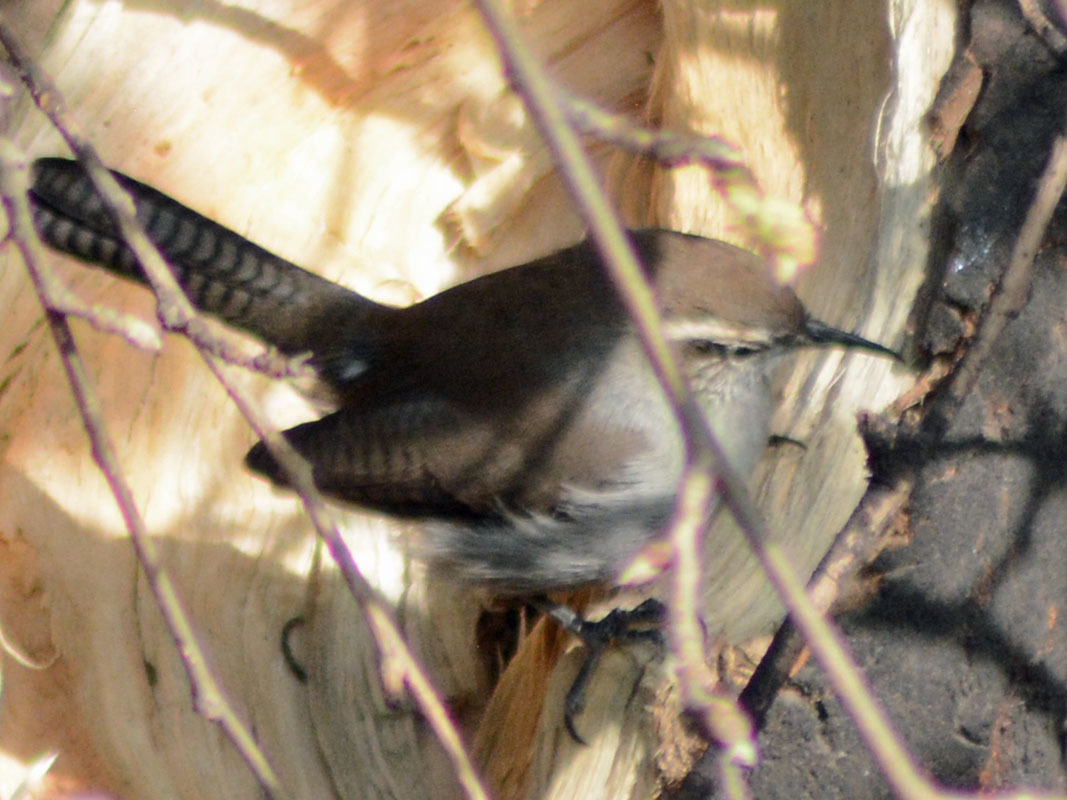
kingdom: Animalia
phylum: Chordata
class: Aves
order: Passeriformes
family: Troglodytidae
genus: Thryomanes
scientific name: Thryomanes bewickii
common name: Bewick's wren
